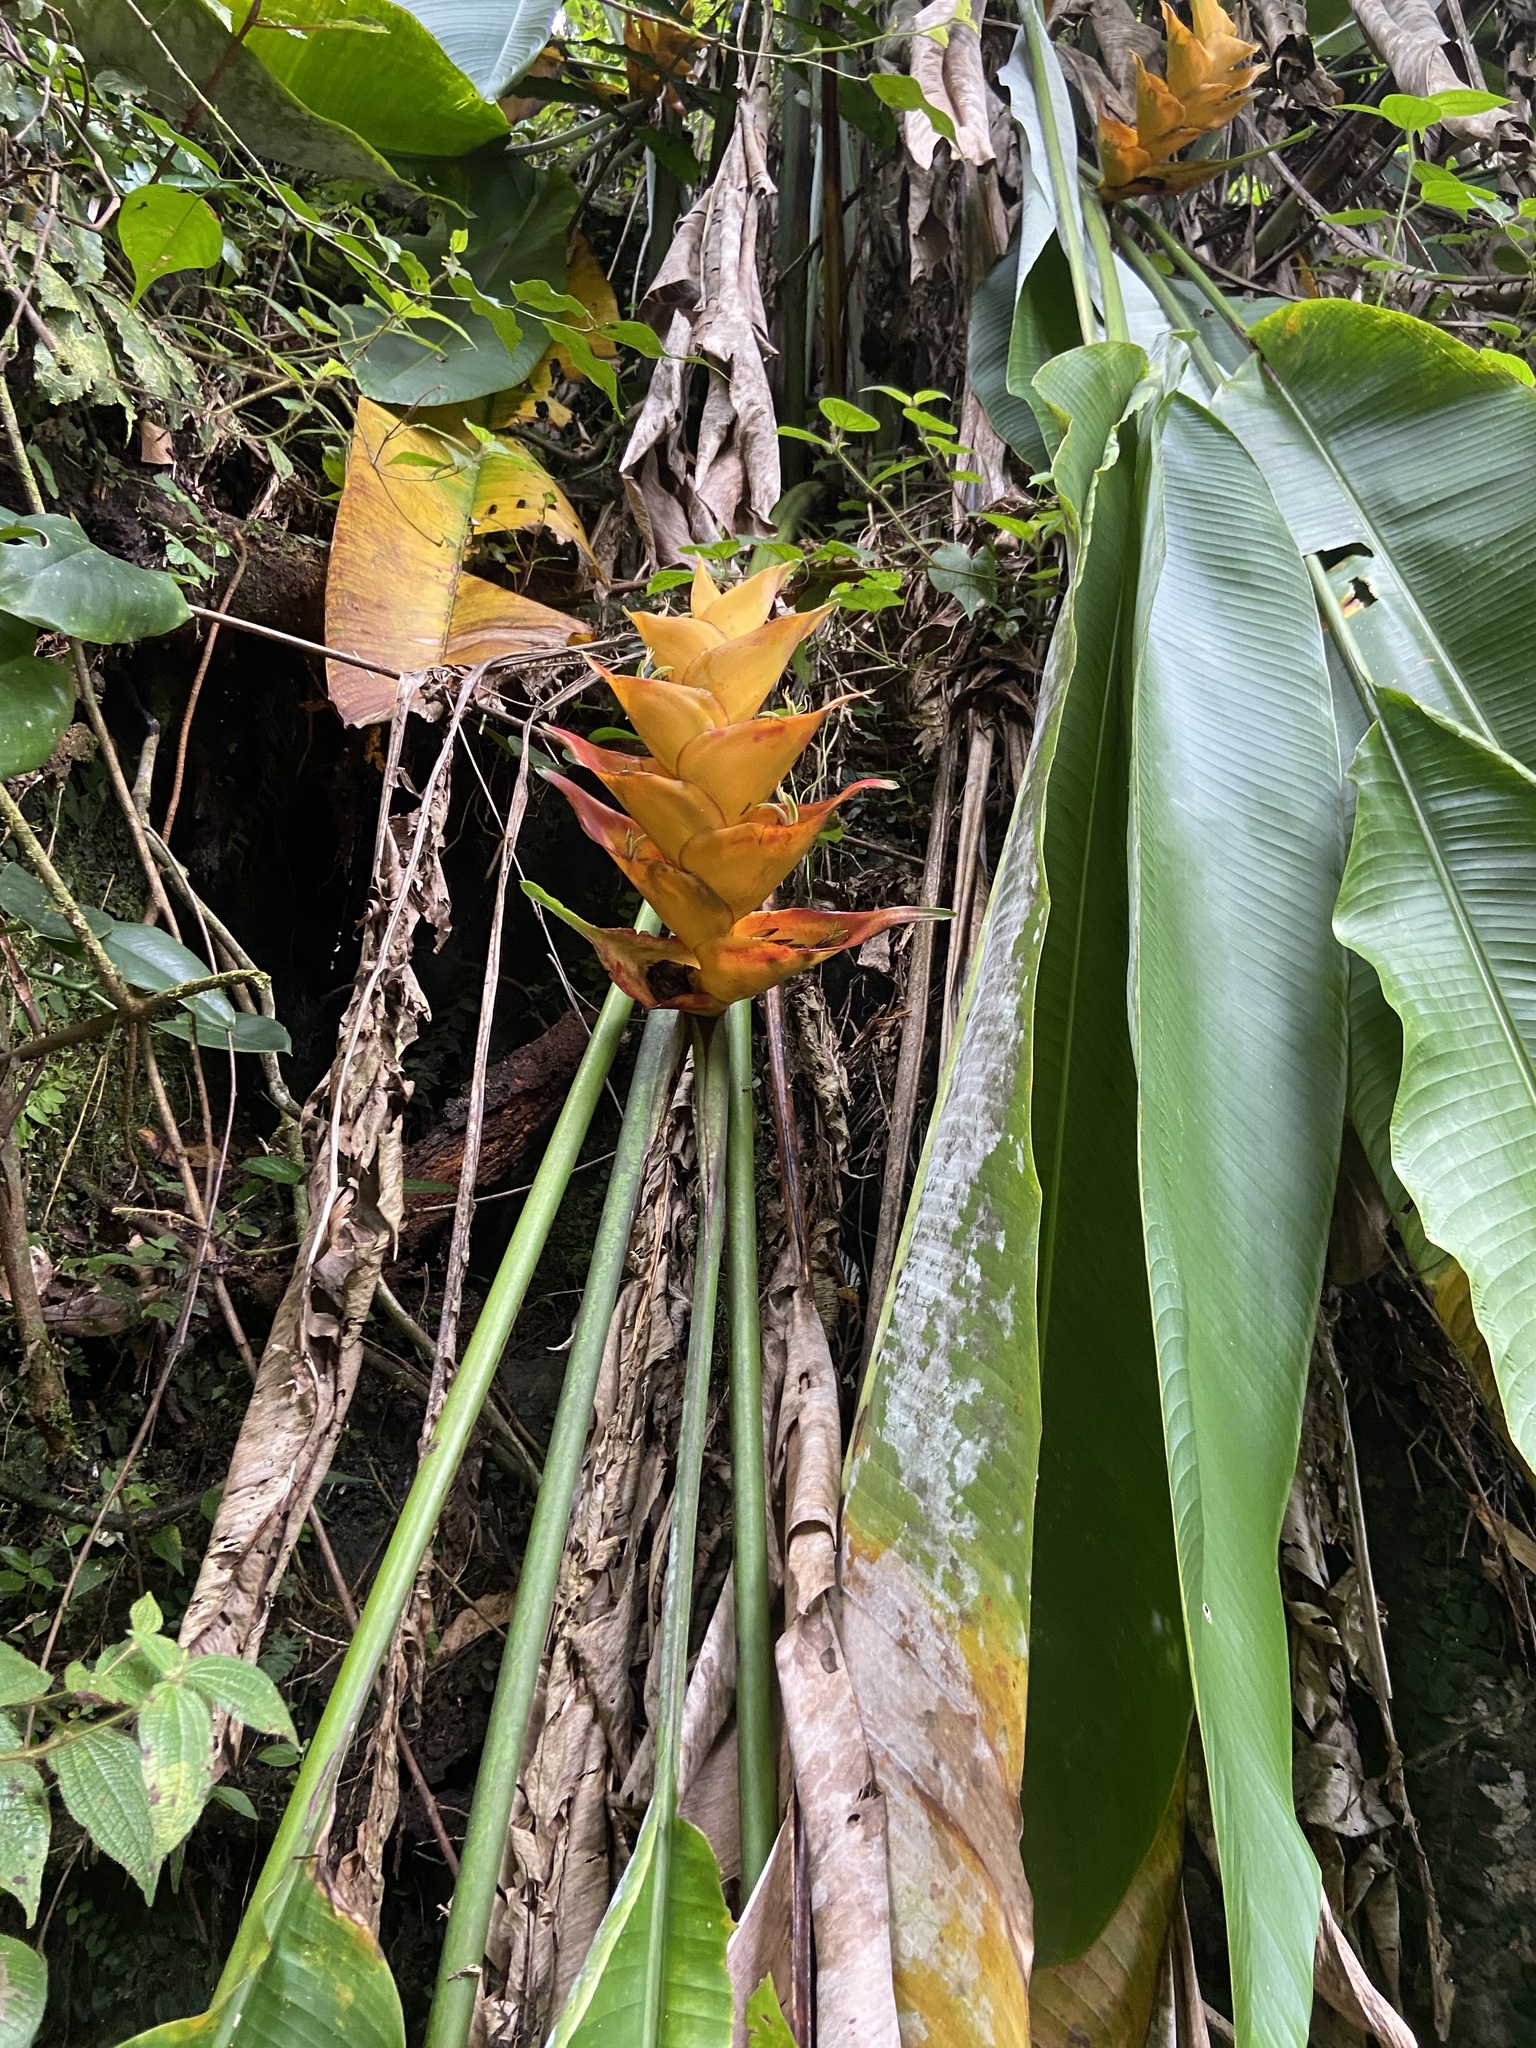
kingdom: Plantae
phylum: Tracheophyta
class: Liliopsida
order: Zingiberales
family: Heliconiaceae
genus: Heliconia
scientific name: Heliconia caribaea
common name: Wild plantain
